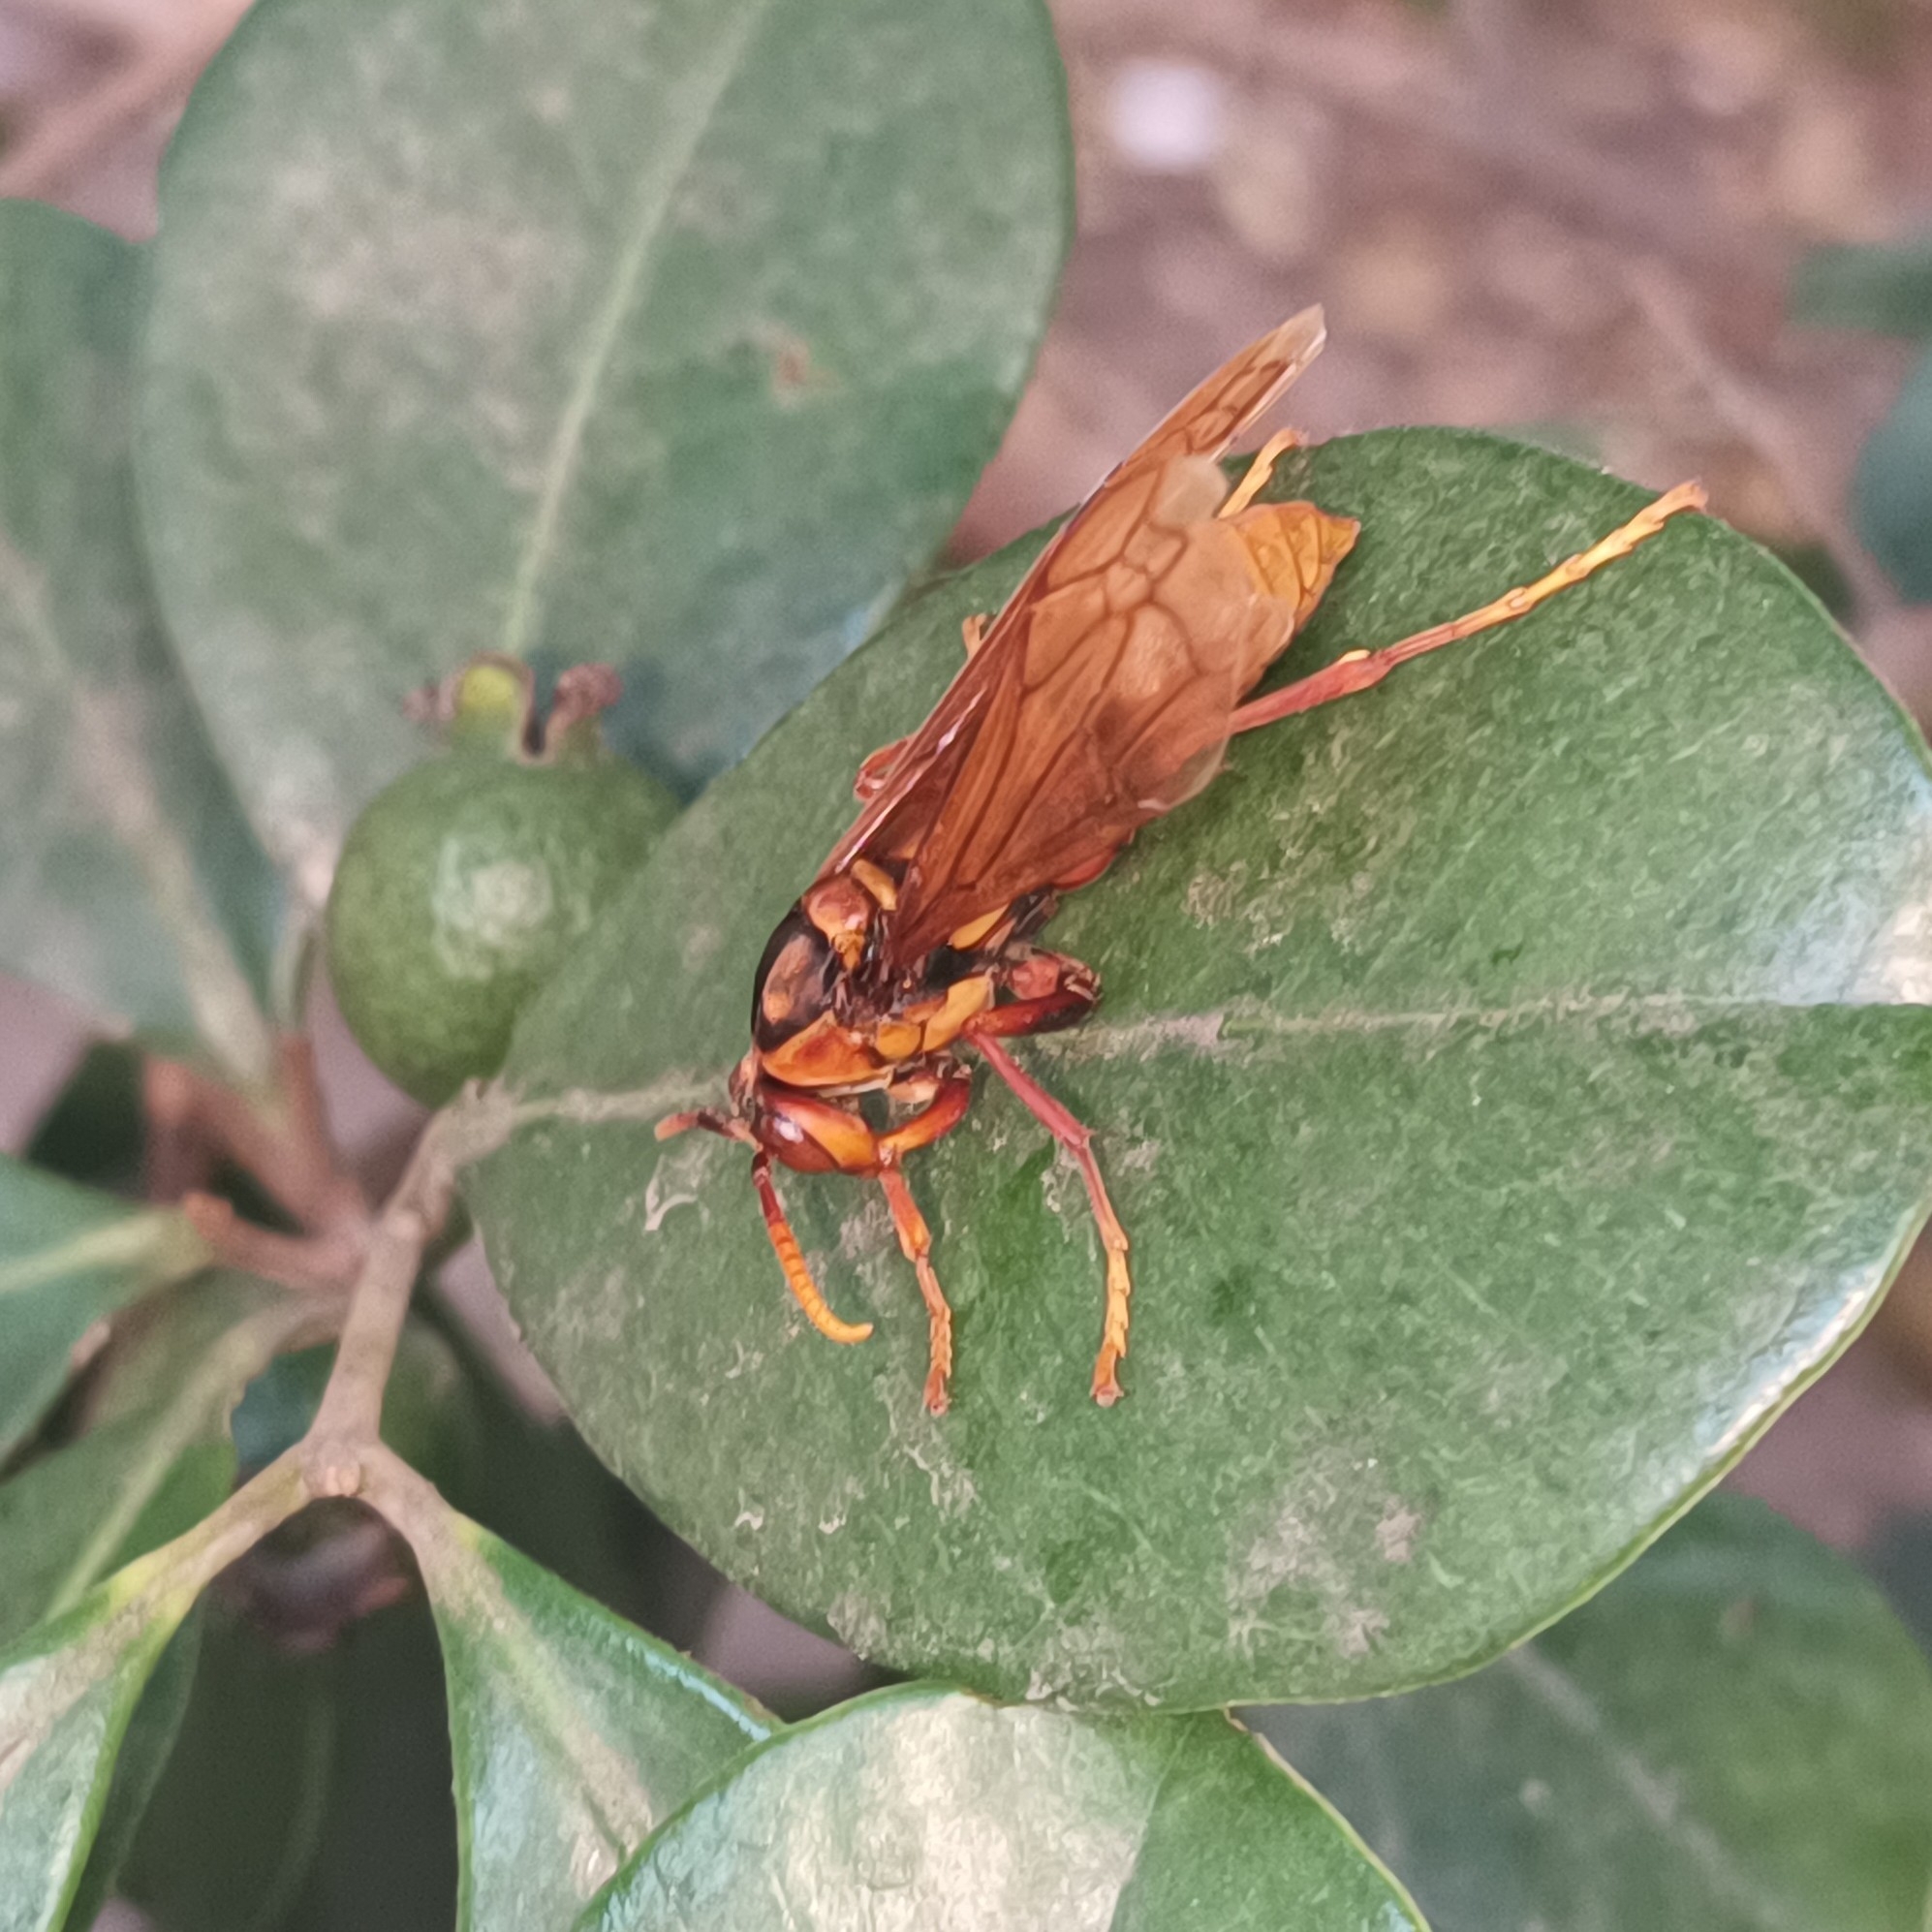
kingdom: Animalia
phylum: Arthropoda
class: Insecta
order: Hymenoptera
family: Eumenidae
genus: Polistes
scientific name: Polistes carnifex
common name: Paper wasp
